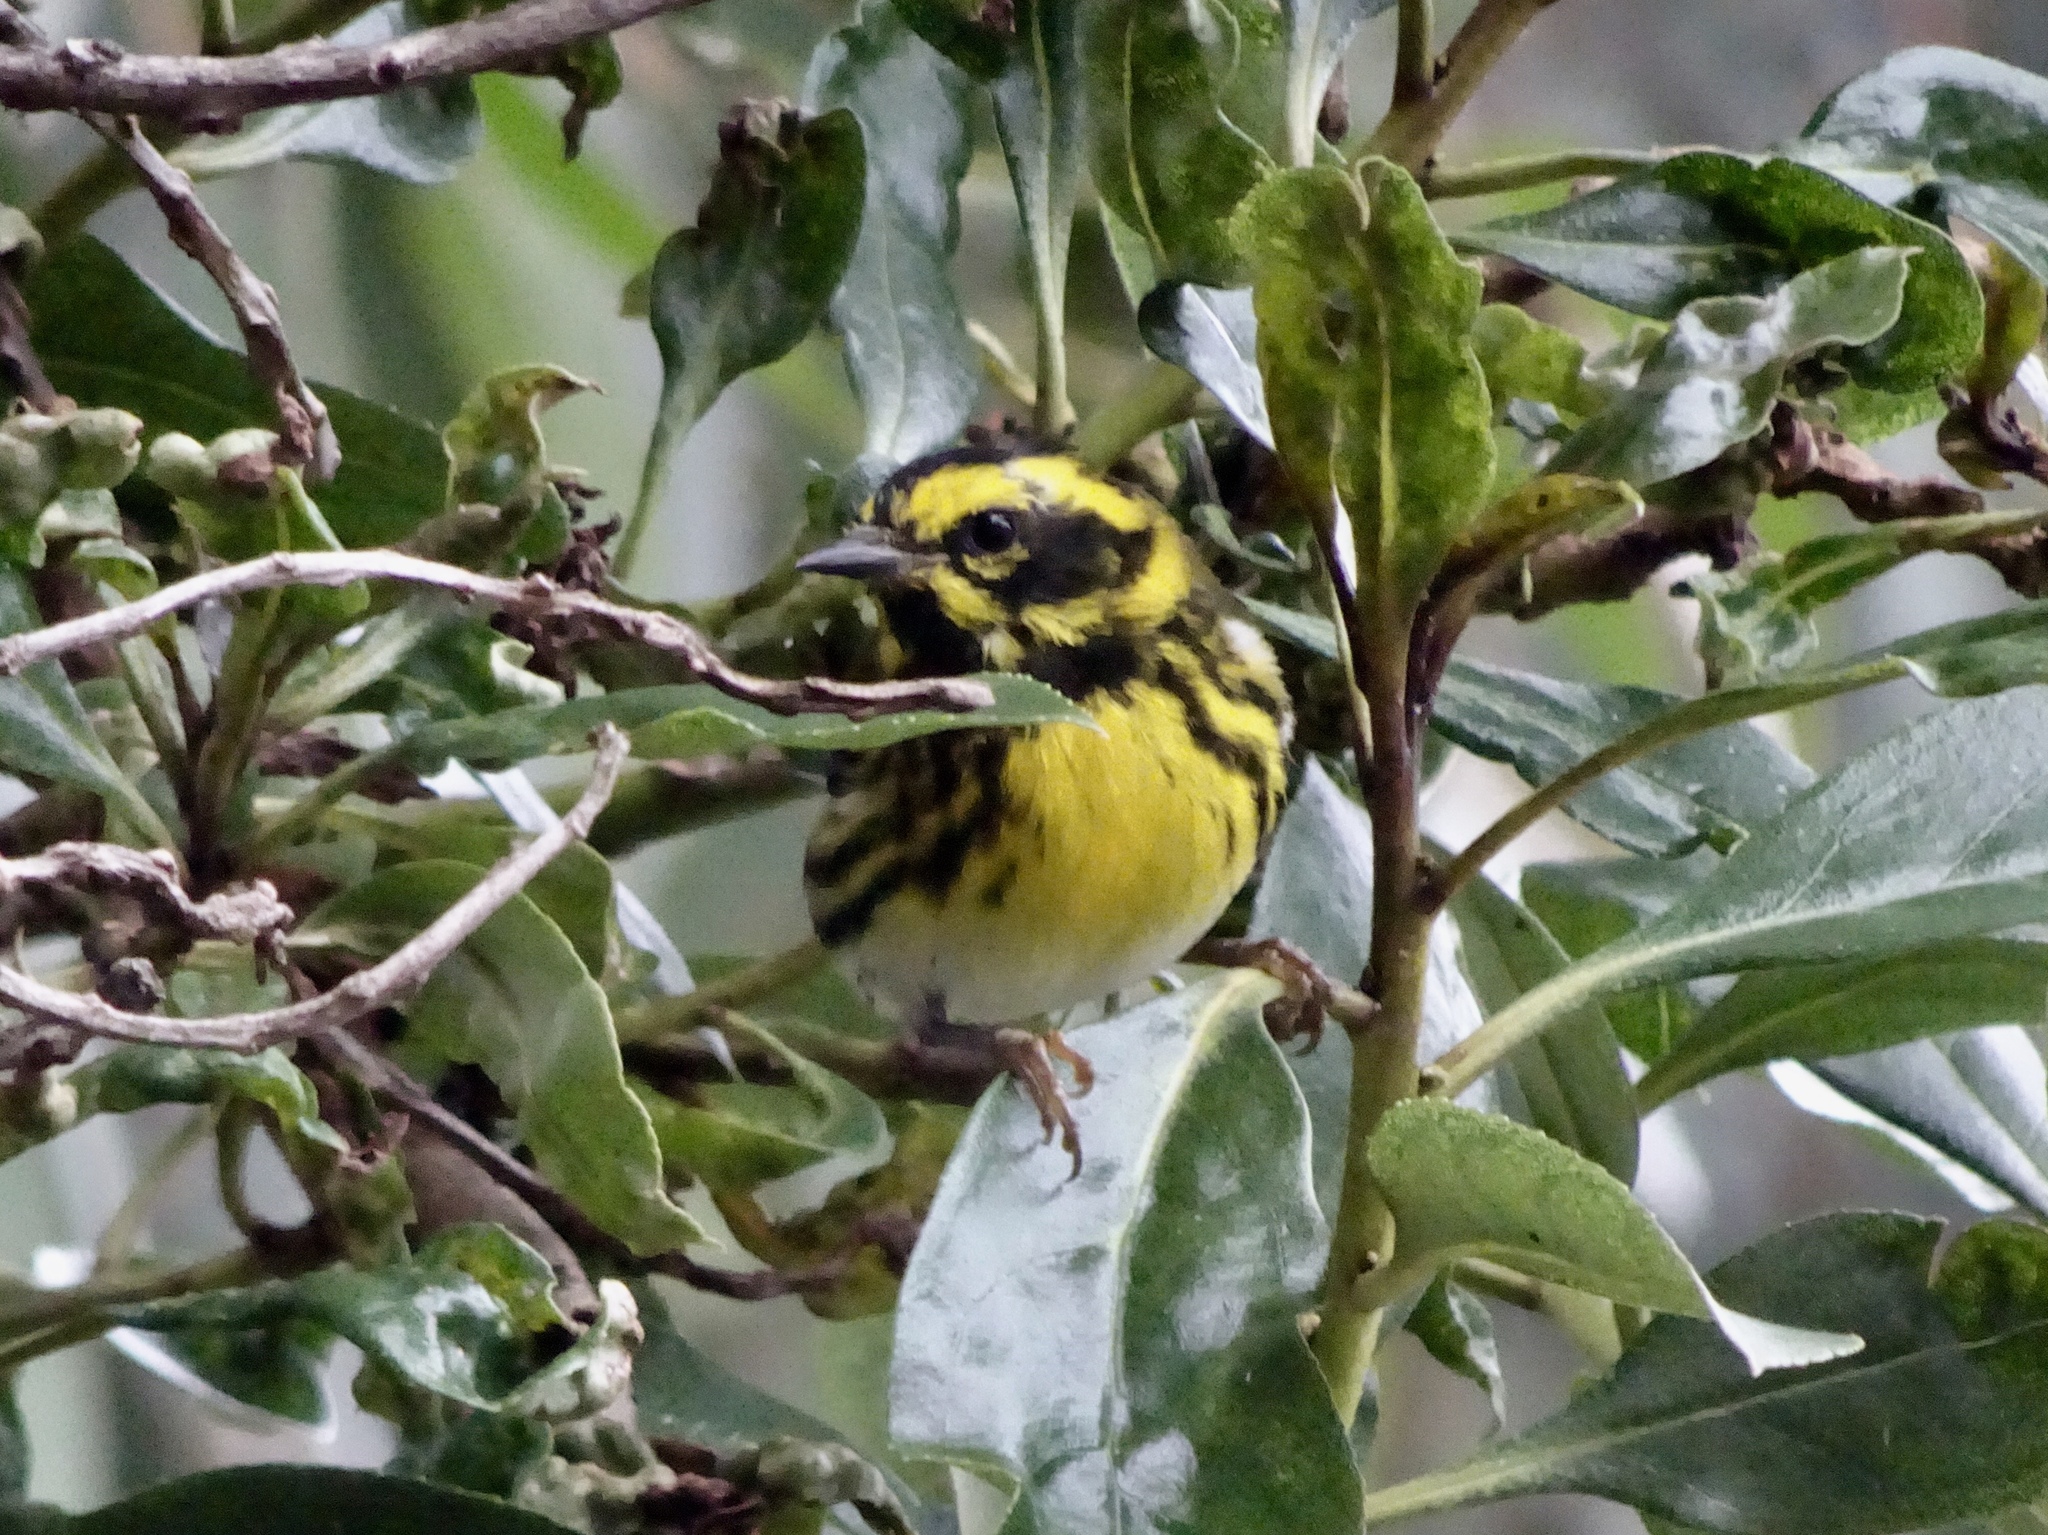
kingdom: Animalia
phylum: Chordata
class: Aves
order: Passeriformes
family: Parulidae
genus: Setophaga
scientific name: Setophaga townsendi
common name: Townsend's warbler
